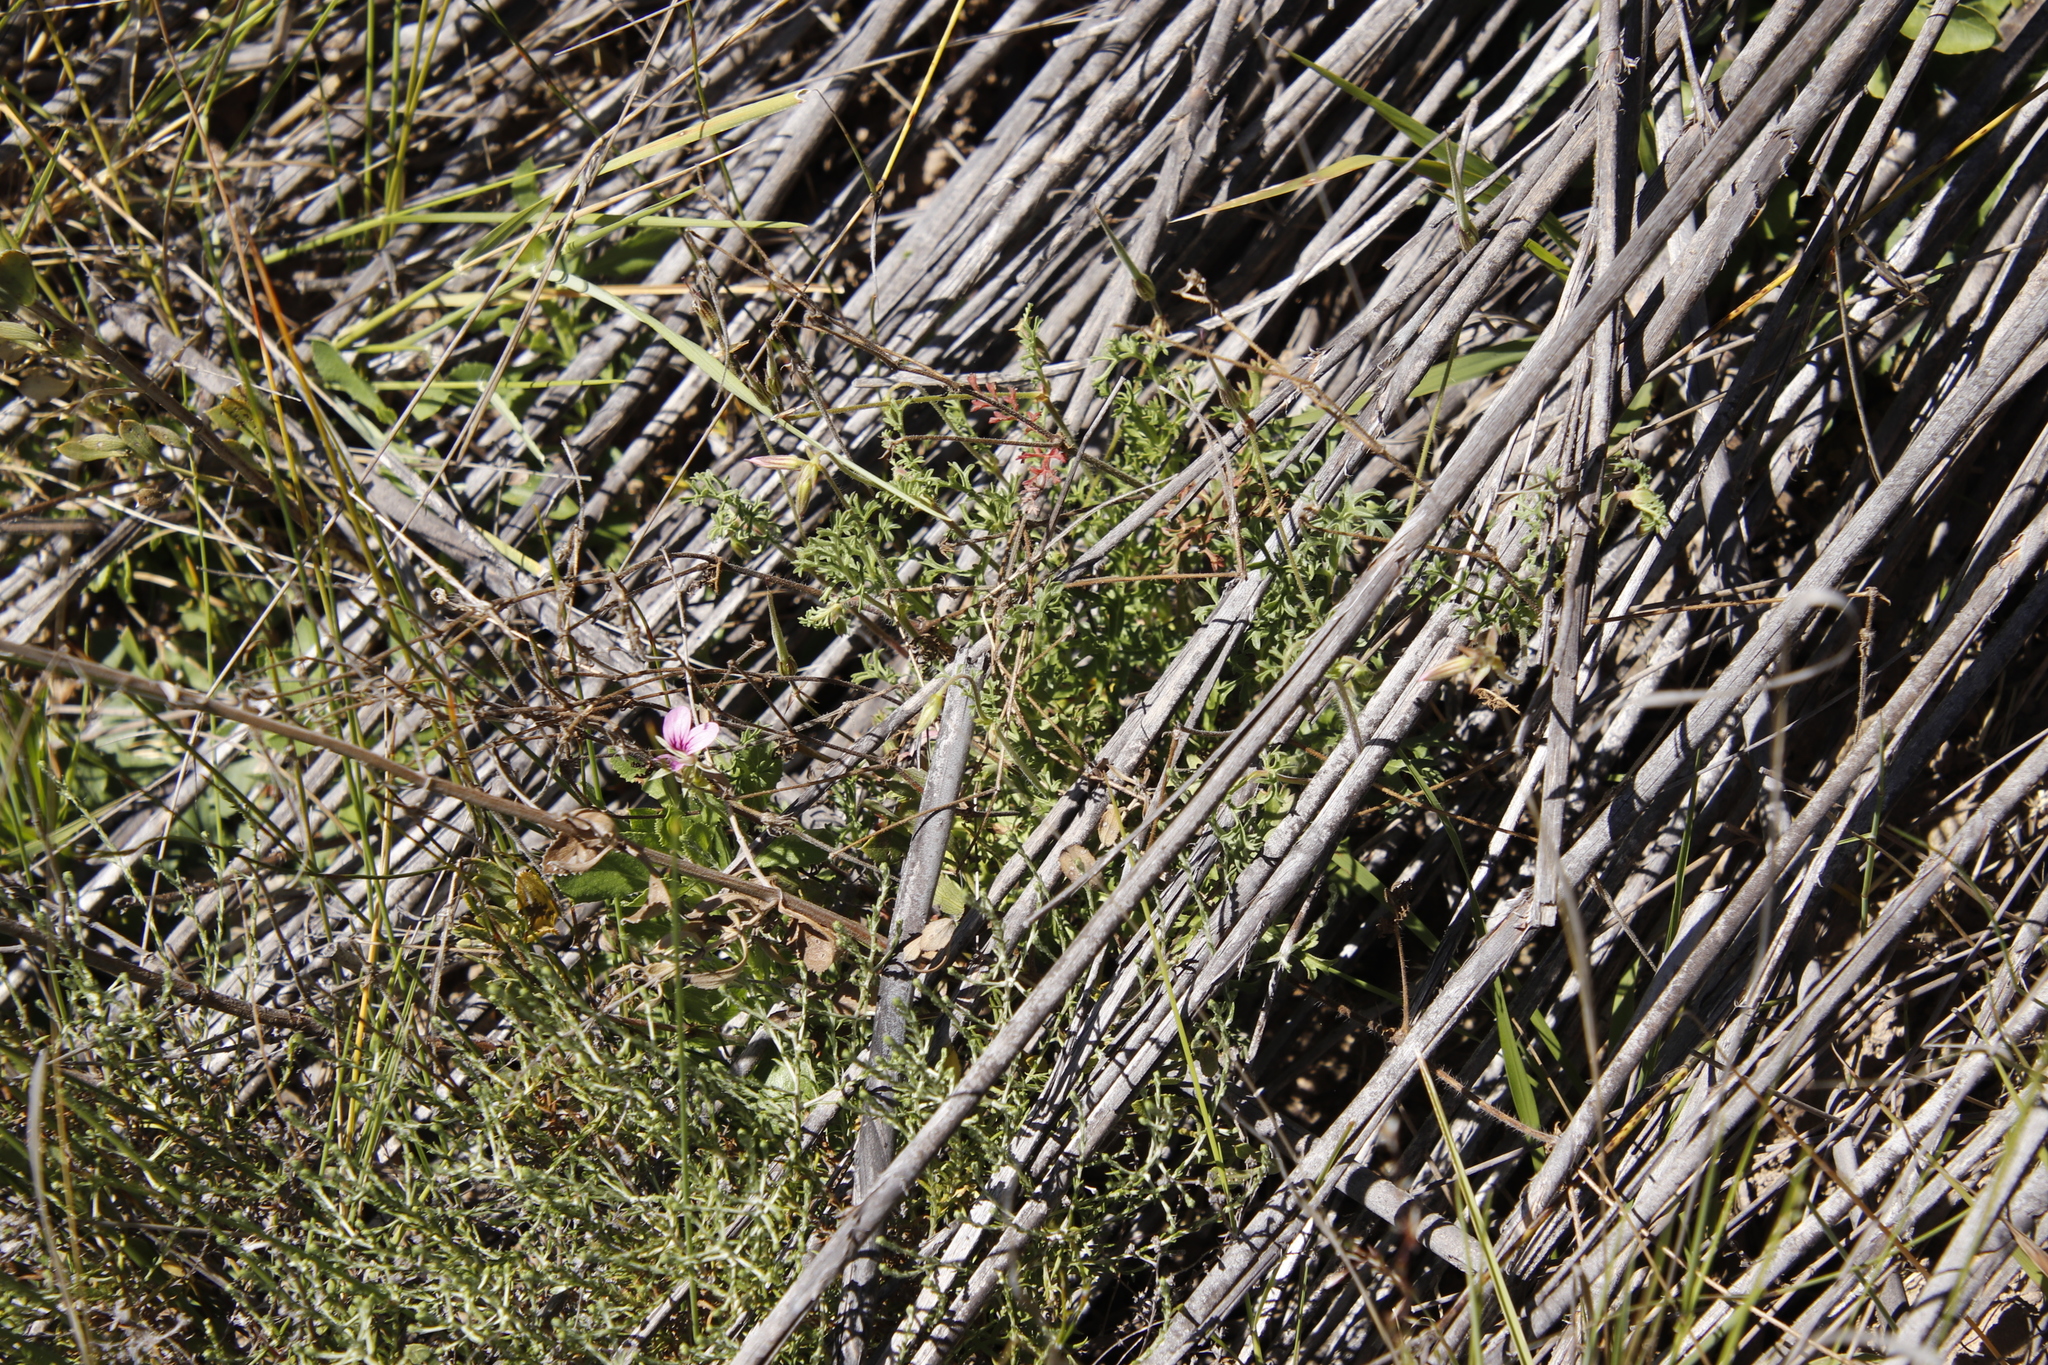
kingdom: Plantae
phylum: Tracheophyta
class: Magnoliopsida
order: Geraniales
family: Geraniaceae
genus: Pelargonium
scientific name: Pelargonium myrrhifolium
